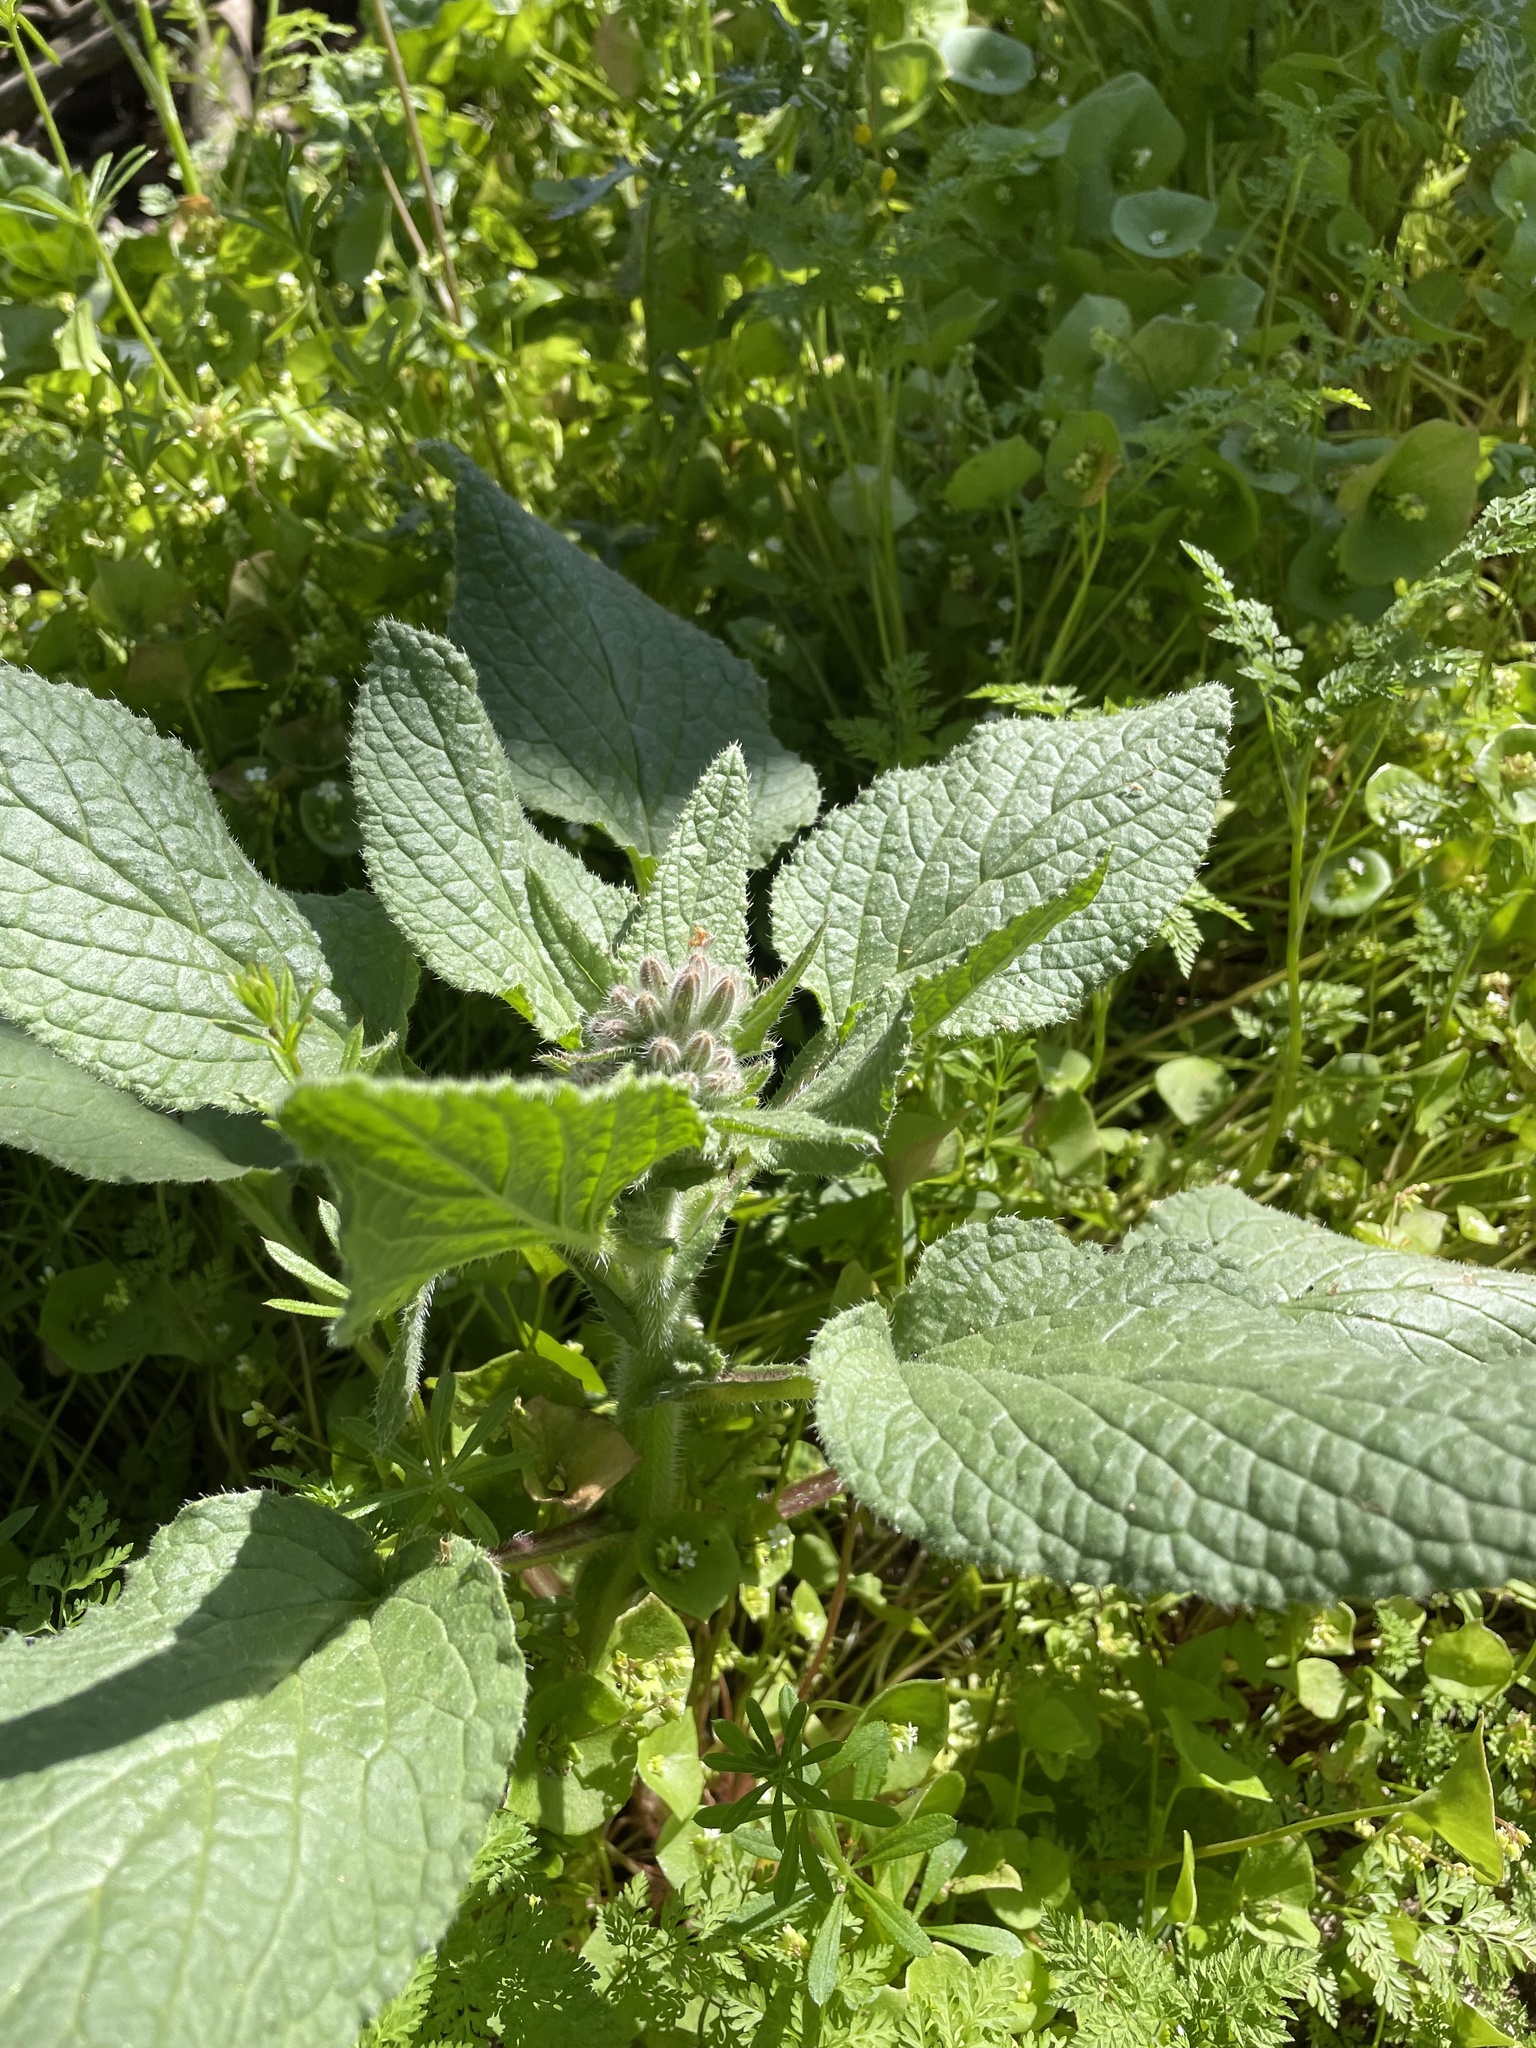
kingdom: Plantae
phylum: Tracheophyta
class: Magnoliopsida
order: Boraginales
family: Boraginaceae
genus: Borago
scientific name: Borago officinalis
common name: Borage
